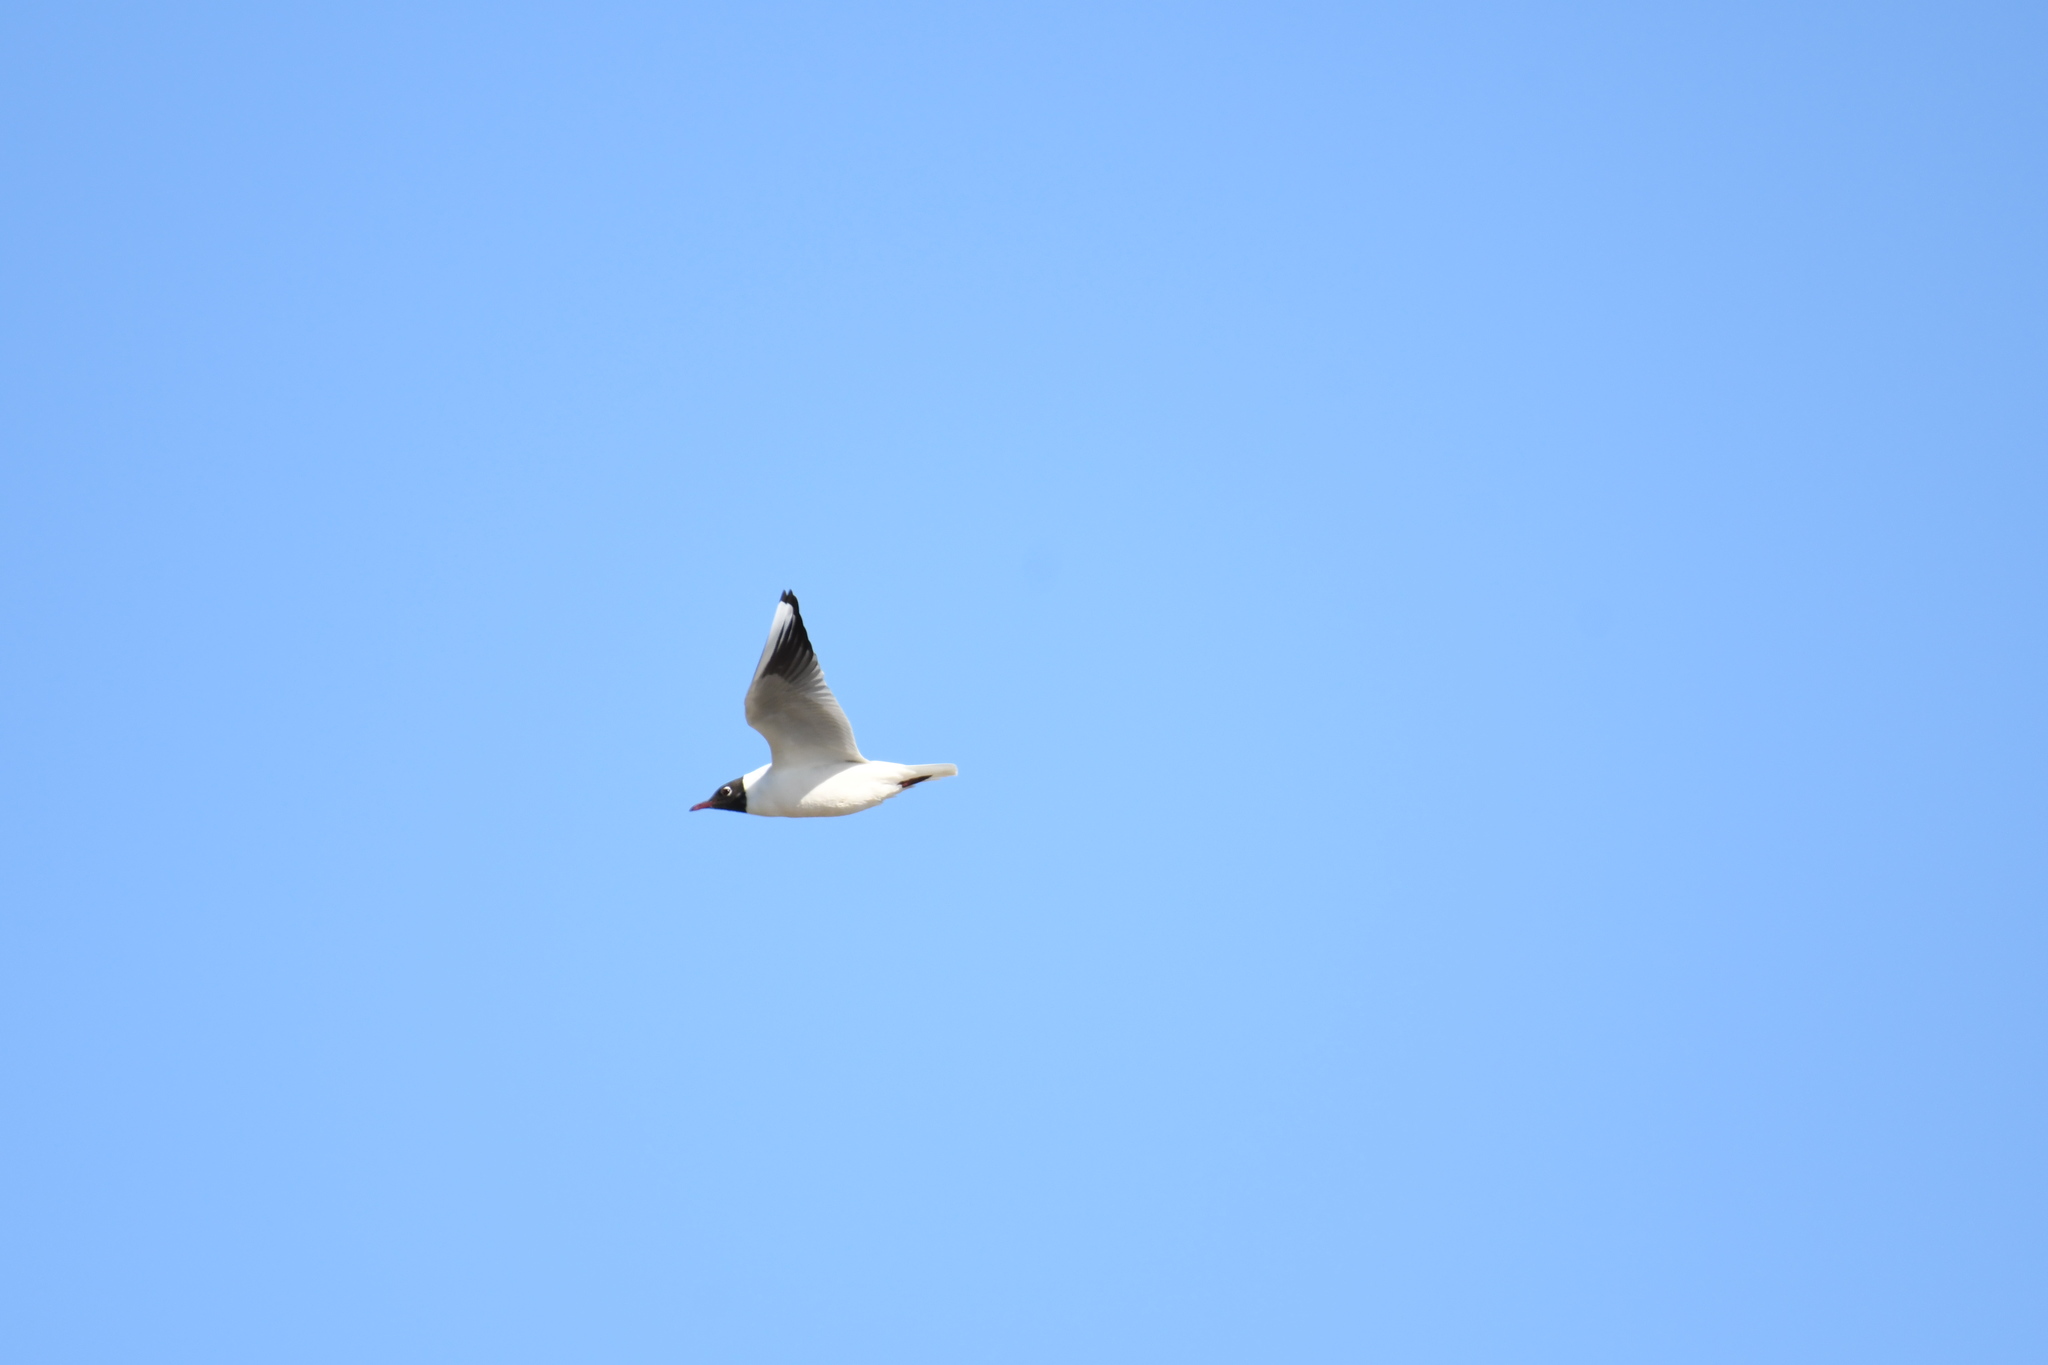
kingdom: Animalia
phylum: Chordata
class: Aves
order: Charadriiformes
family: Laridae
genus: Chroicocephalus
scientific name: Chroicocephalus ridibundus
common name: Black-headed gull
